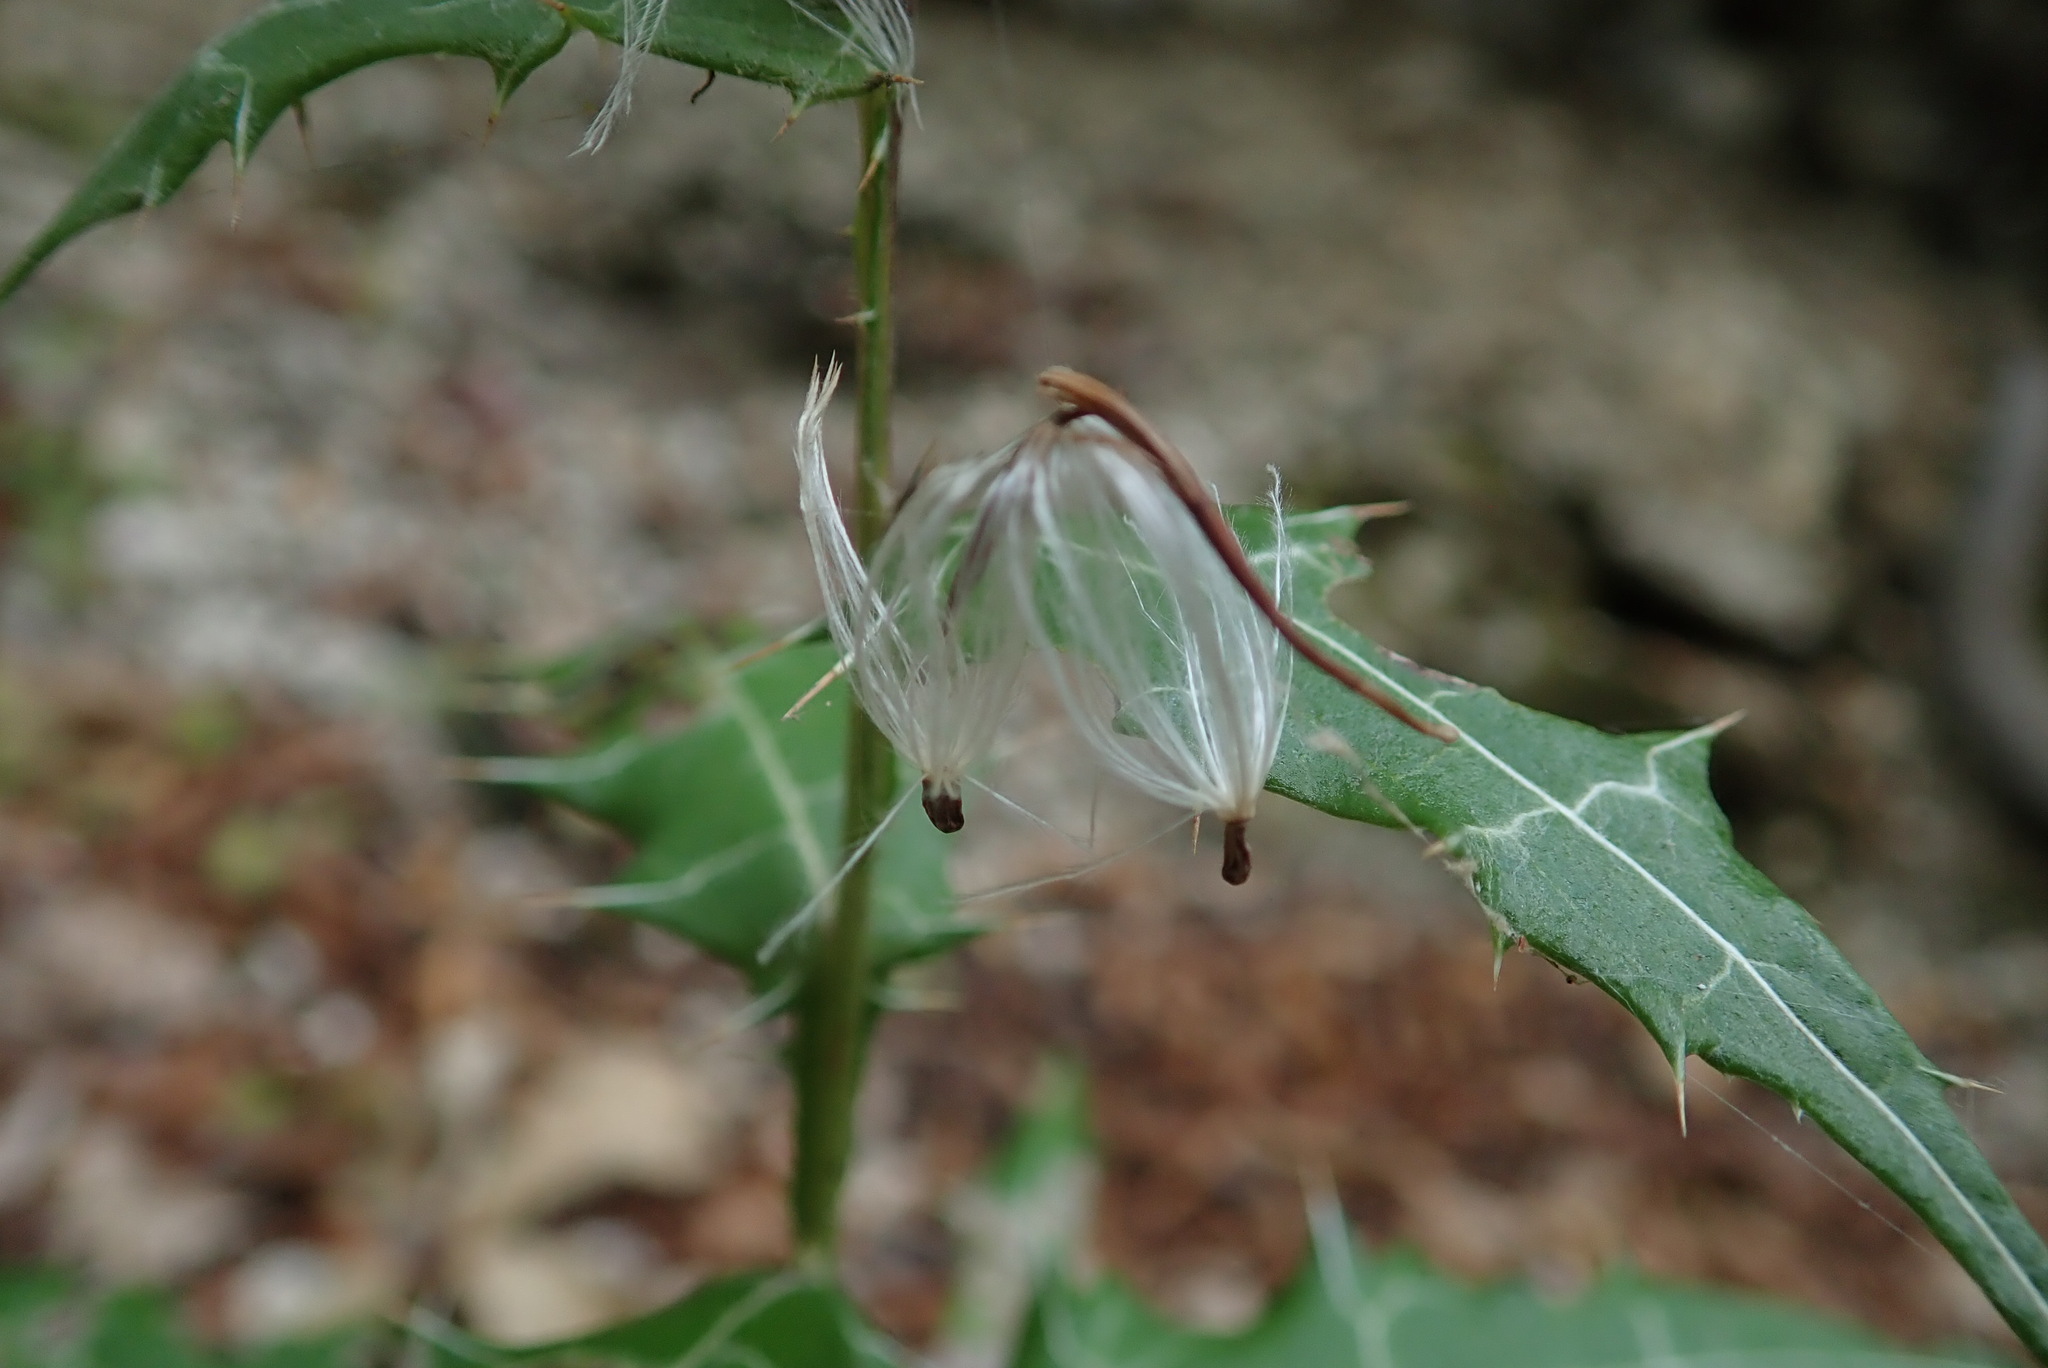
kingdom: Plantae
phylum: Tracheophyta
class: Magnoliopsida
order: Asterales
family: Asteraceae
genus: Ptilostemon
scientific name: Ptilostemon strictus
